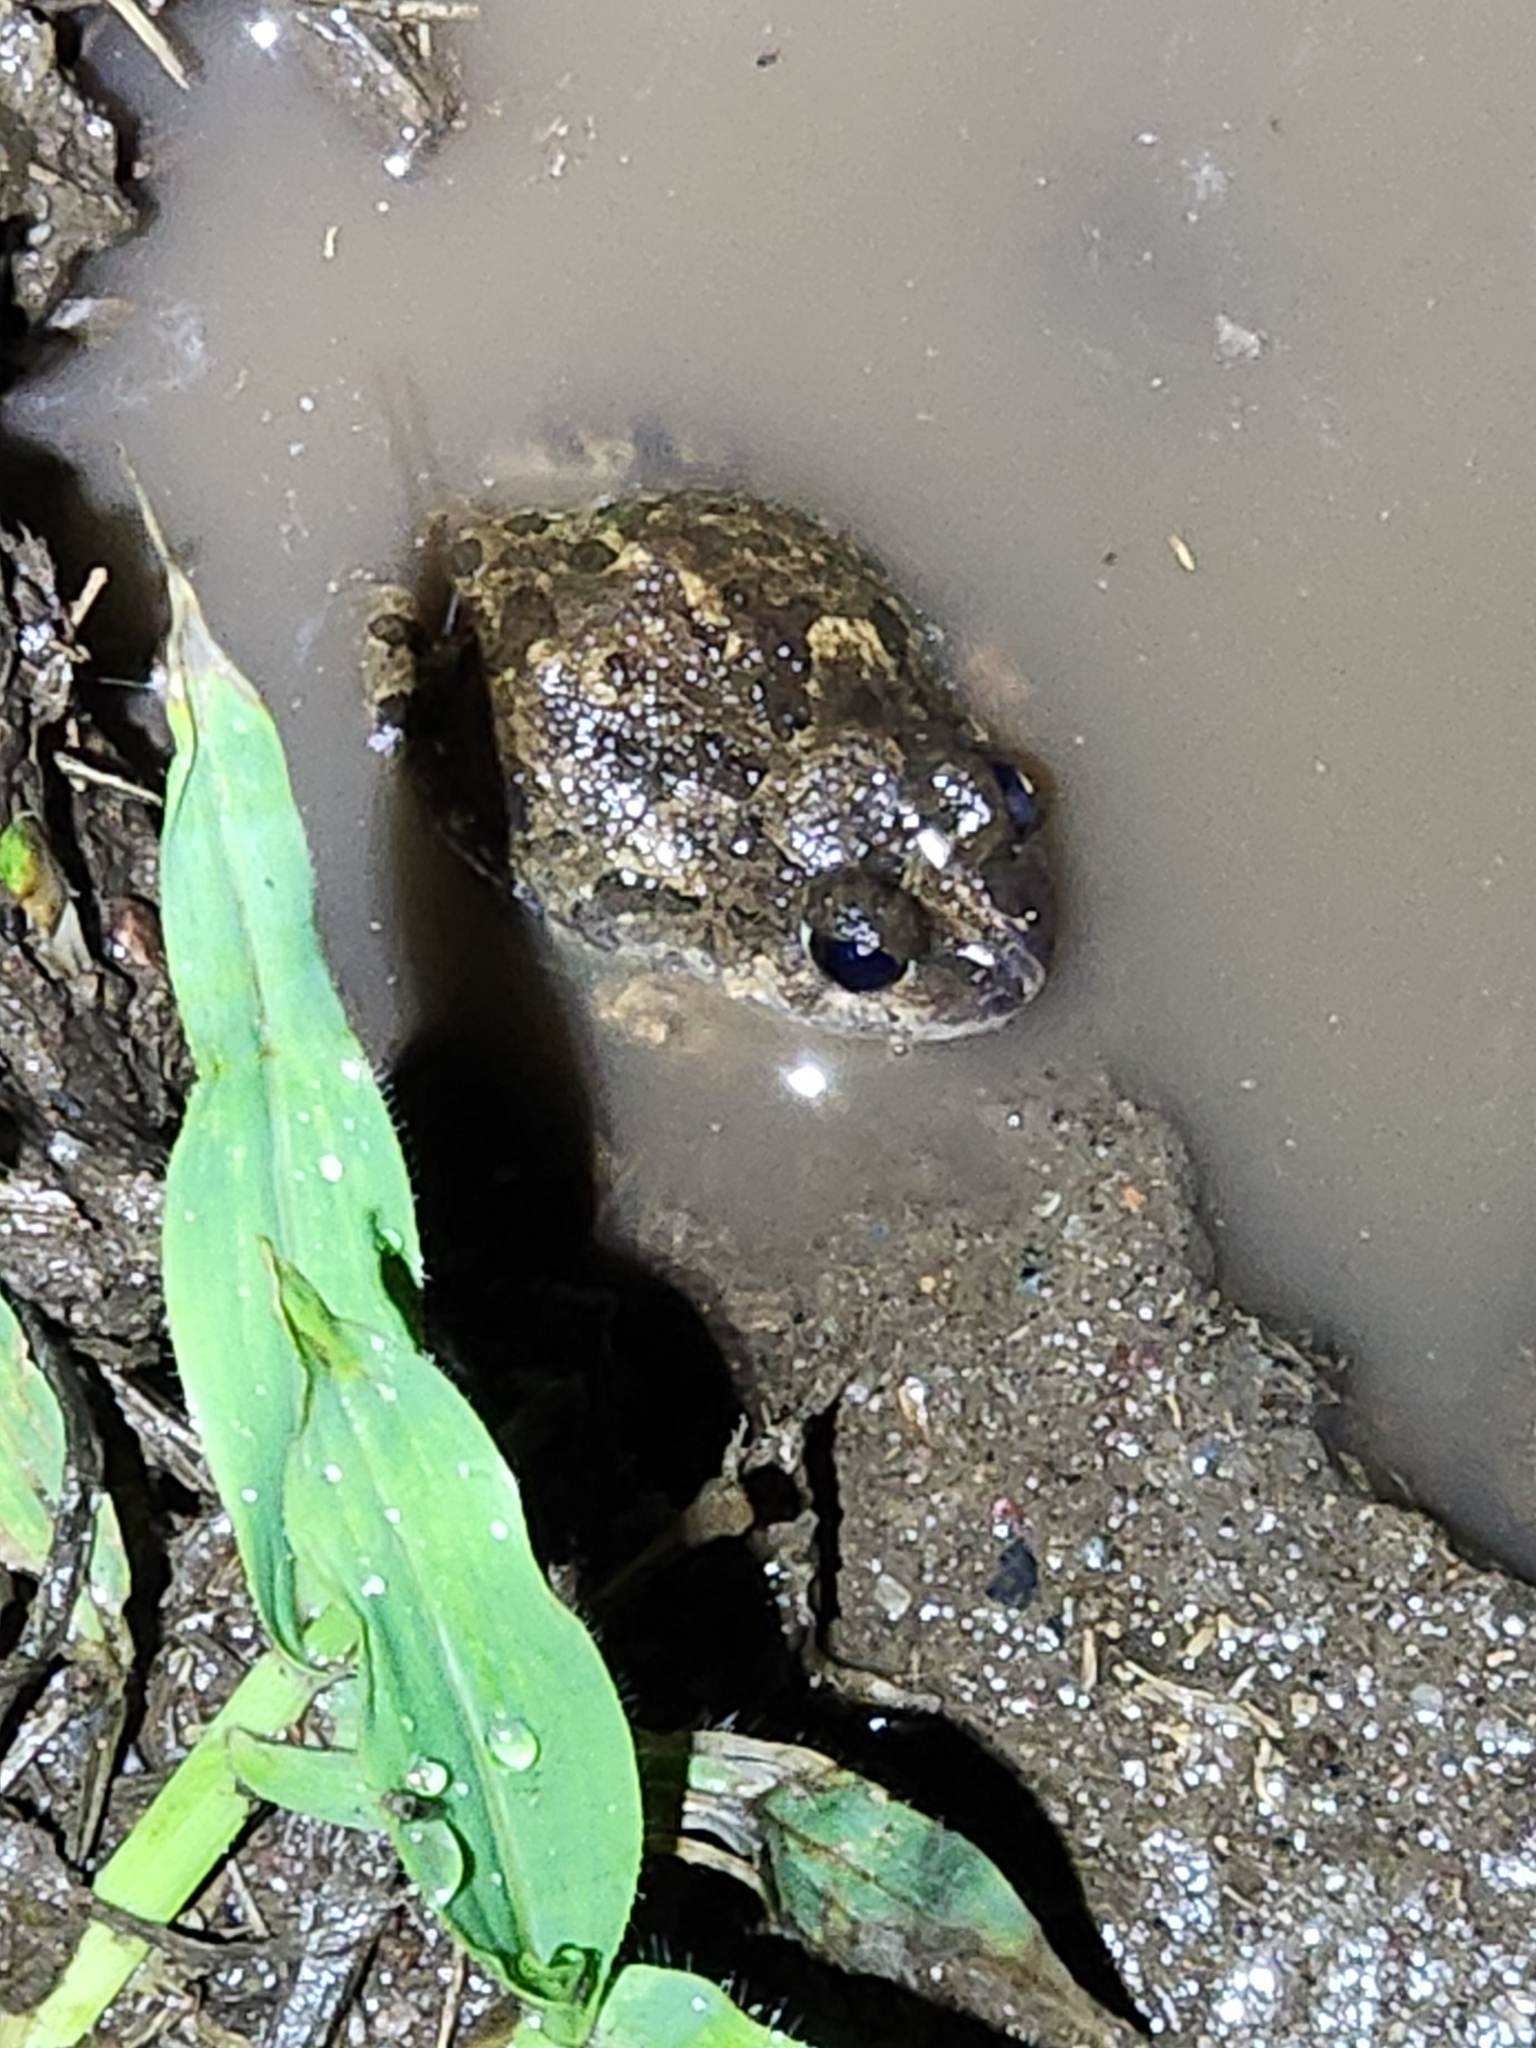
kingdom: Animalia
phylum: Chordata
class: Amphibia
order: Anura
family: Limnodynastidae
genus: Platyplectrum
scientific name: Platyplectrum ornatum
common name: Ornate burrowing frog
